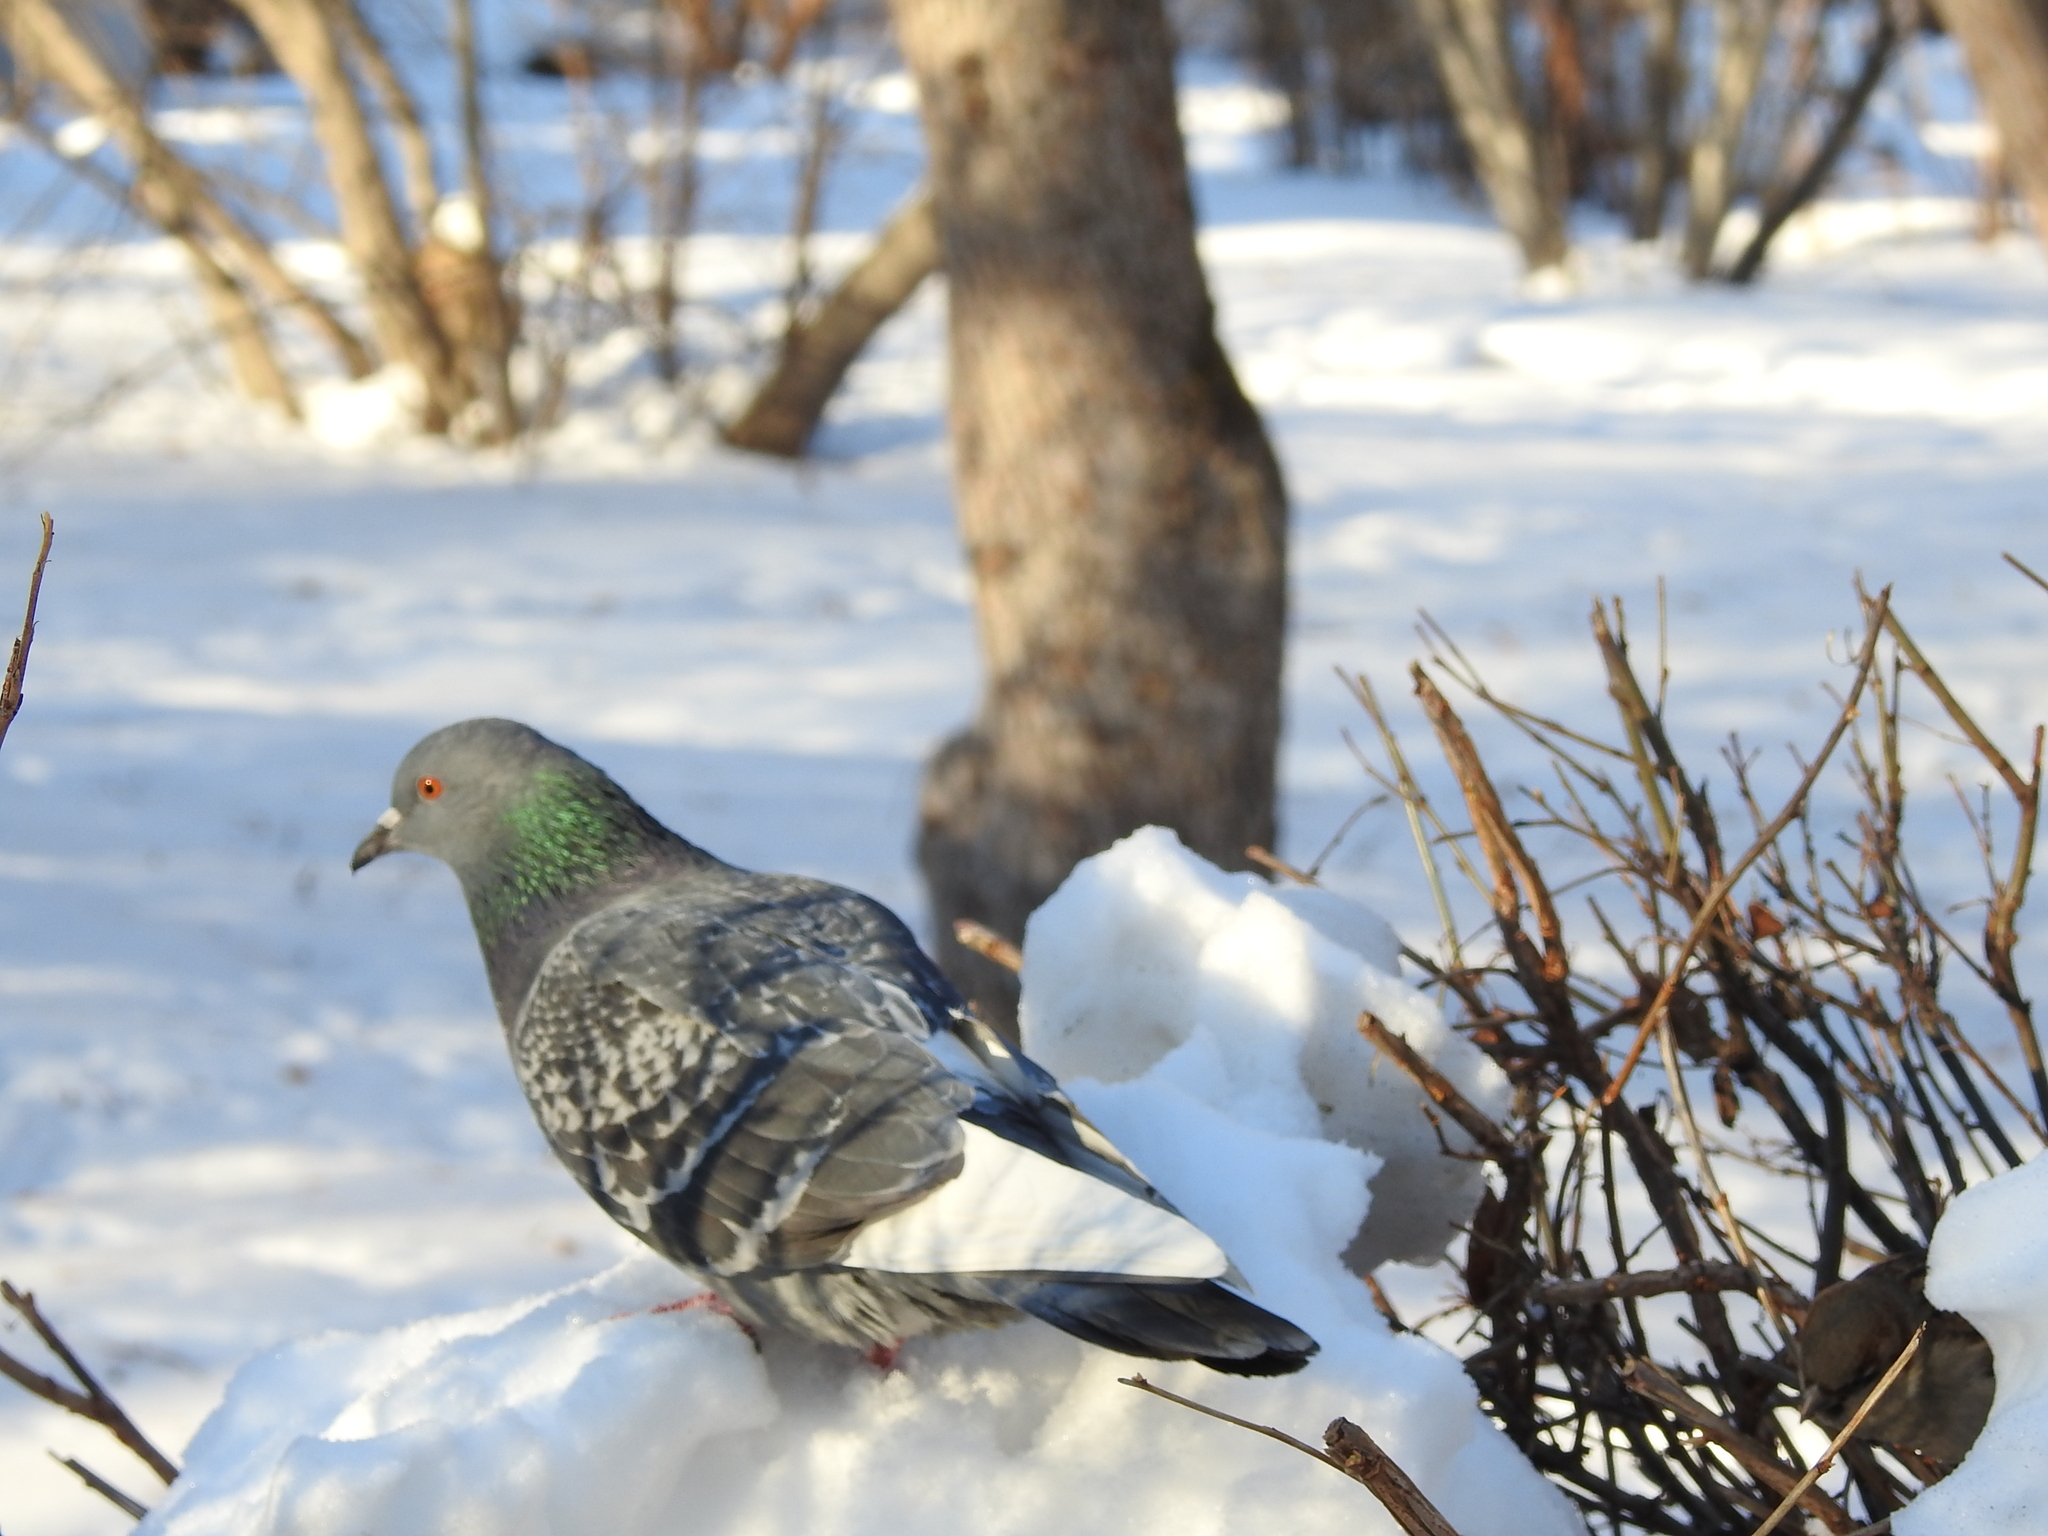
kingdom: Animalia
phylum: Chordata
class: Aves
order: Columbiformes
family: Columbidae
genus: Columba
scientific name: Columba livia
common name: Rock pigeon
